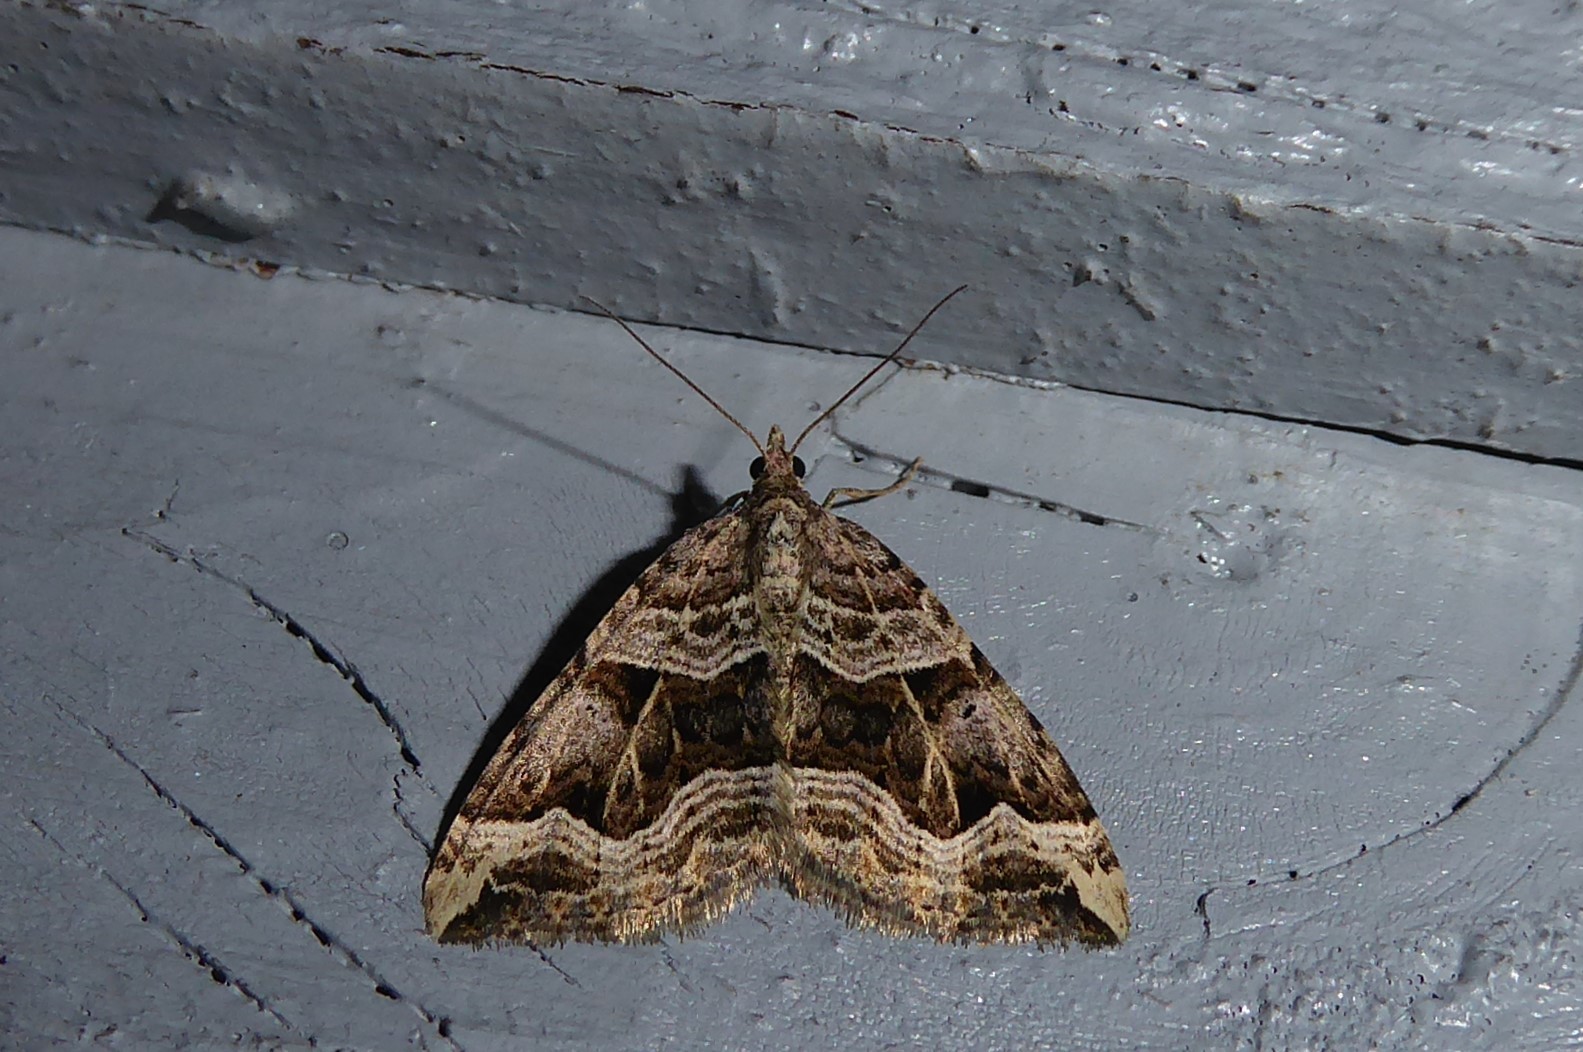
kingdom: Animalia
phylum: Arthropoda
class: Insecta
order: Lepidoptera
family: Geometridae
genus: Xanthorhoe
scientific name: Xanthorhoe semifissata
